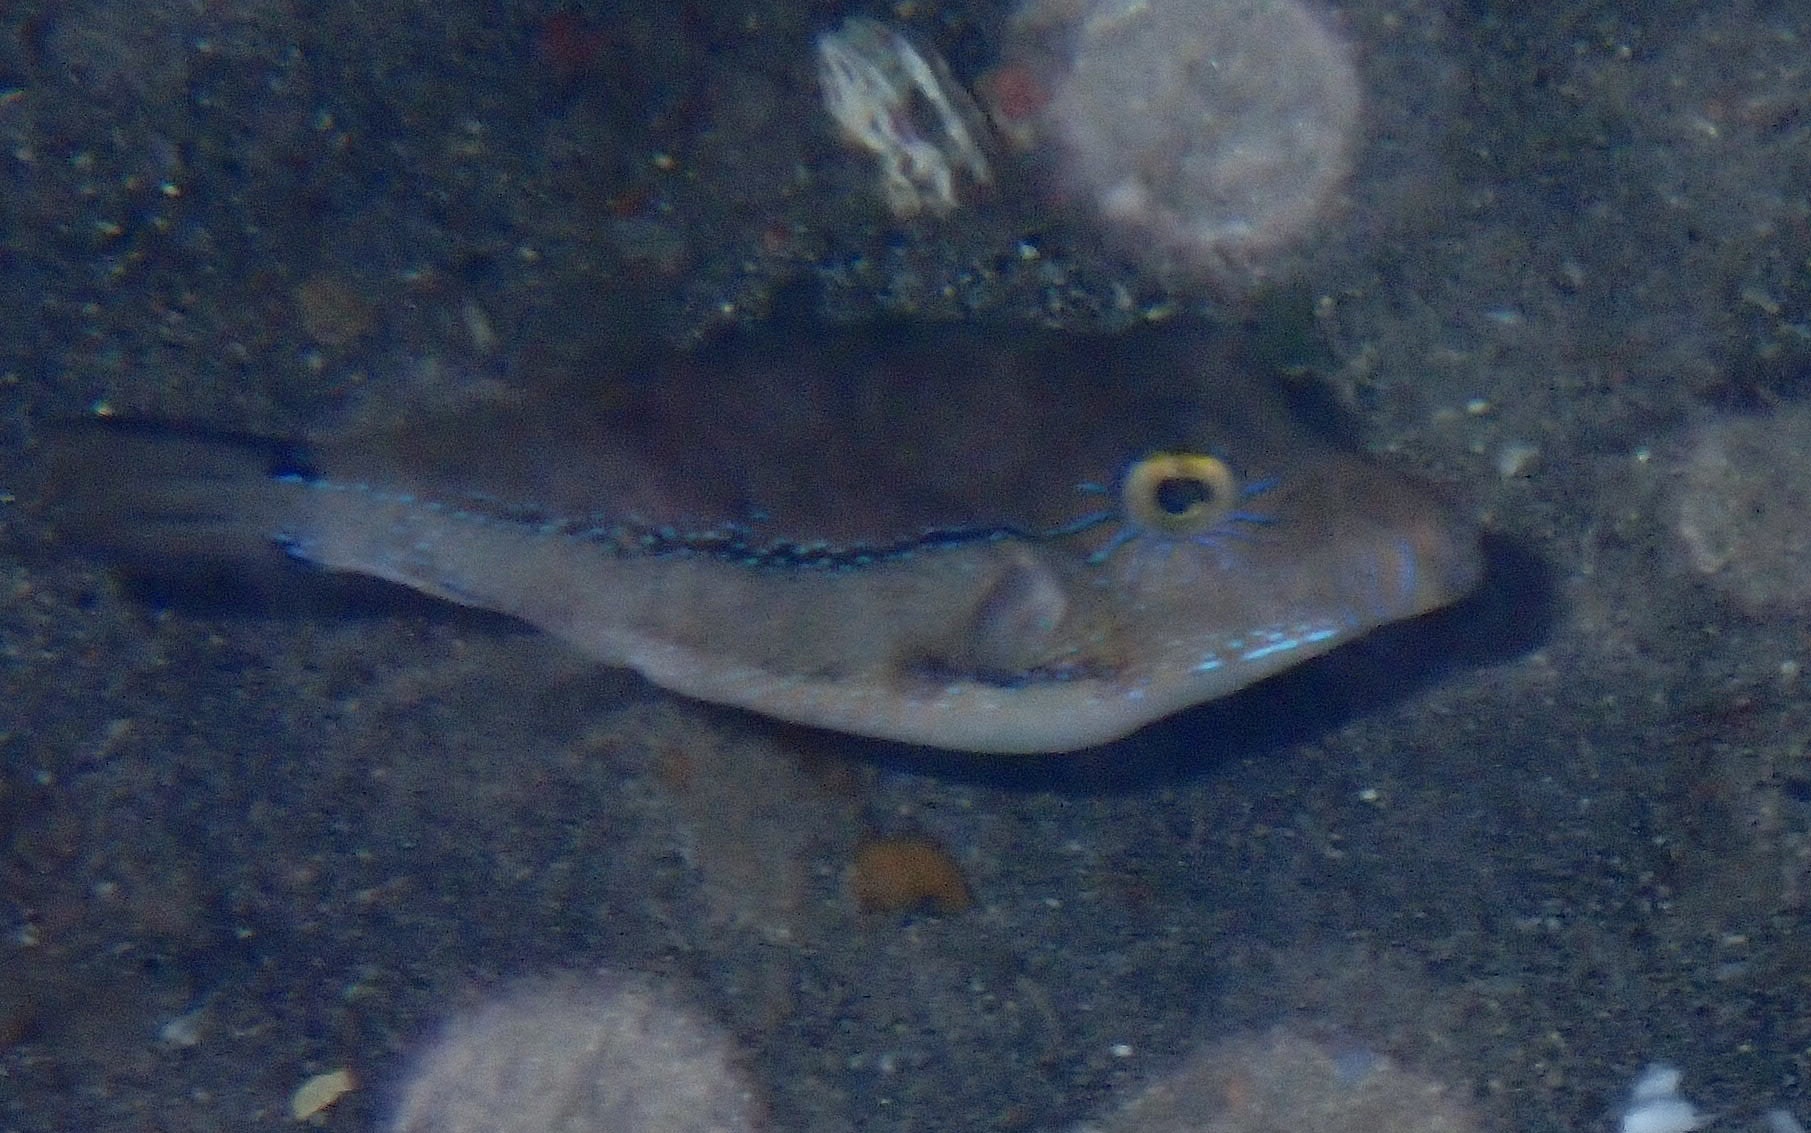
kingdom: Animalia
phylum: Chordata
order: Tetraodontiformes
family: Tetraodontidae
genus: Canthigaster
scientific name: Canthigaster capistrata
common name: Macaronesian sharpnose-puffer
